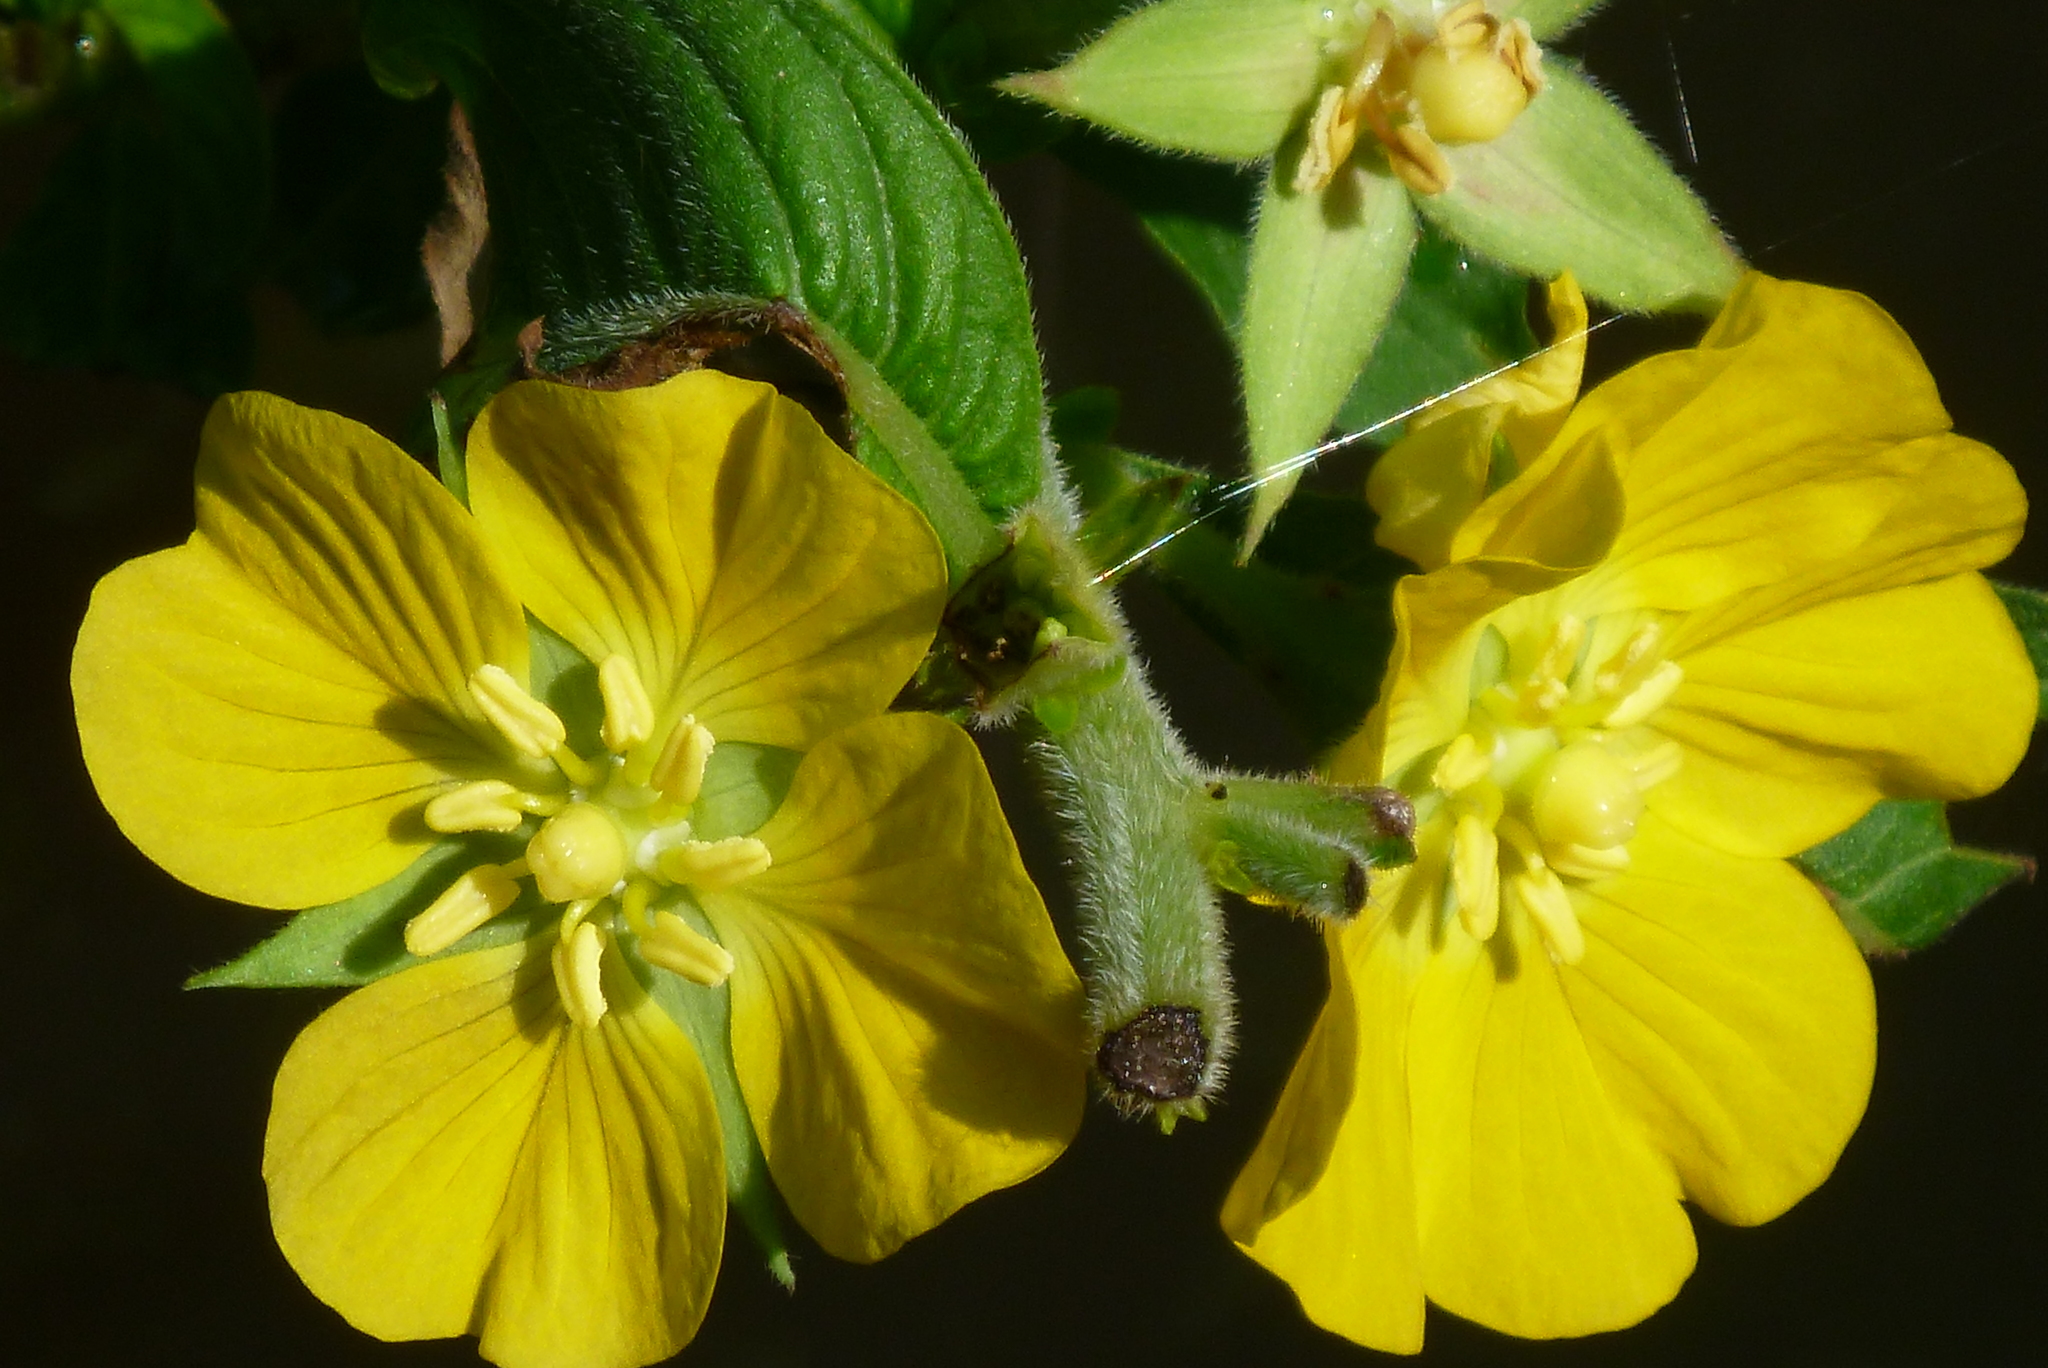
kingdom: Plantae
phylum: Tracheophyta
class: Magnoliopsida
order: Myrtales
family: Onagraceae
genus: Ludwigia
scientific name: Ludwigia peruviana
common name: Peruvian primrose-willow
